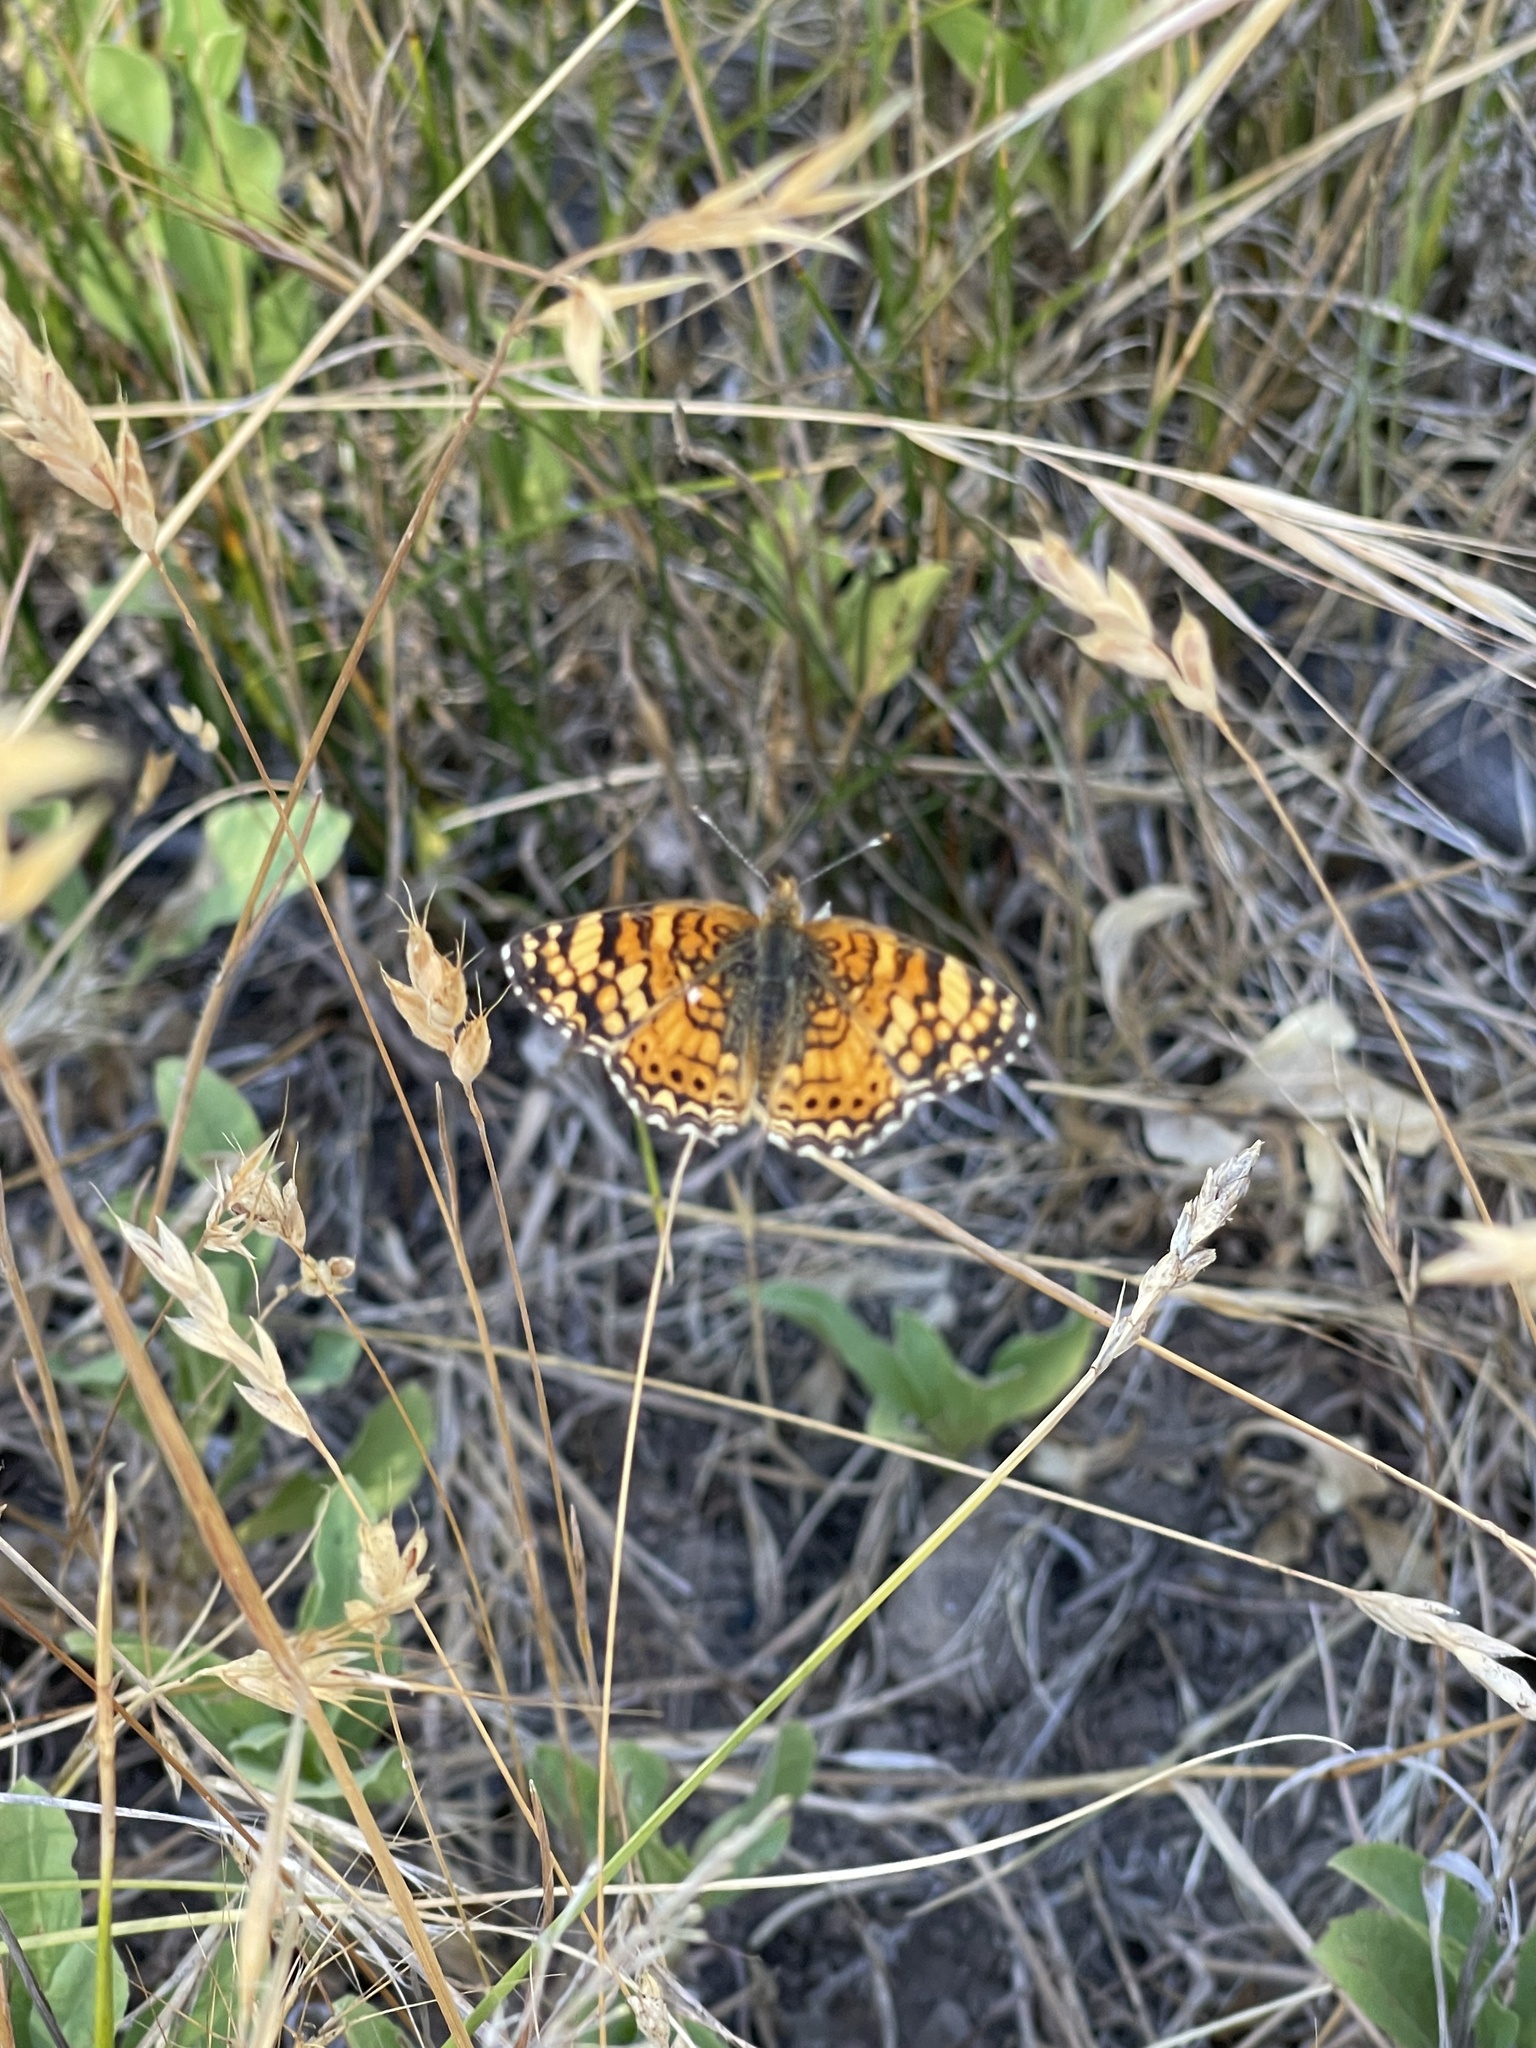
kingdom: Animalia
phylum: Arthropoda
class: Insecta
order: Lepidoptera
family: Nymphalidae
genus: Eresia
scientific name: Eresia aveyrona
